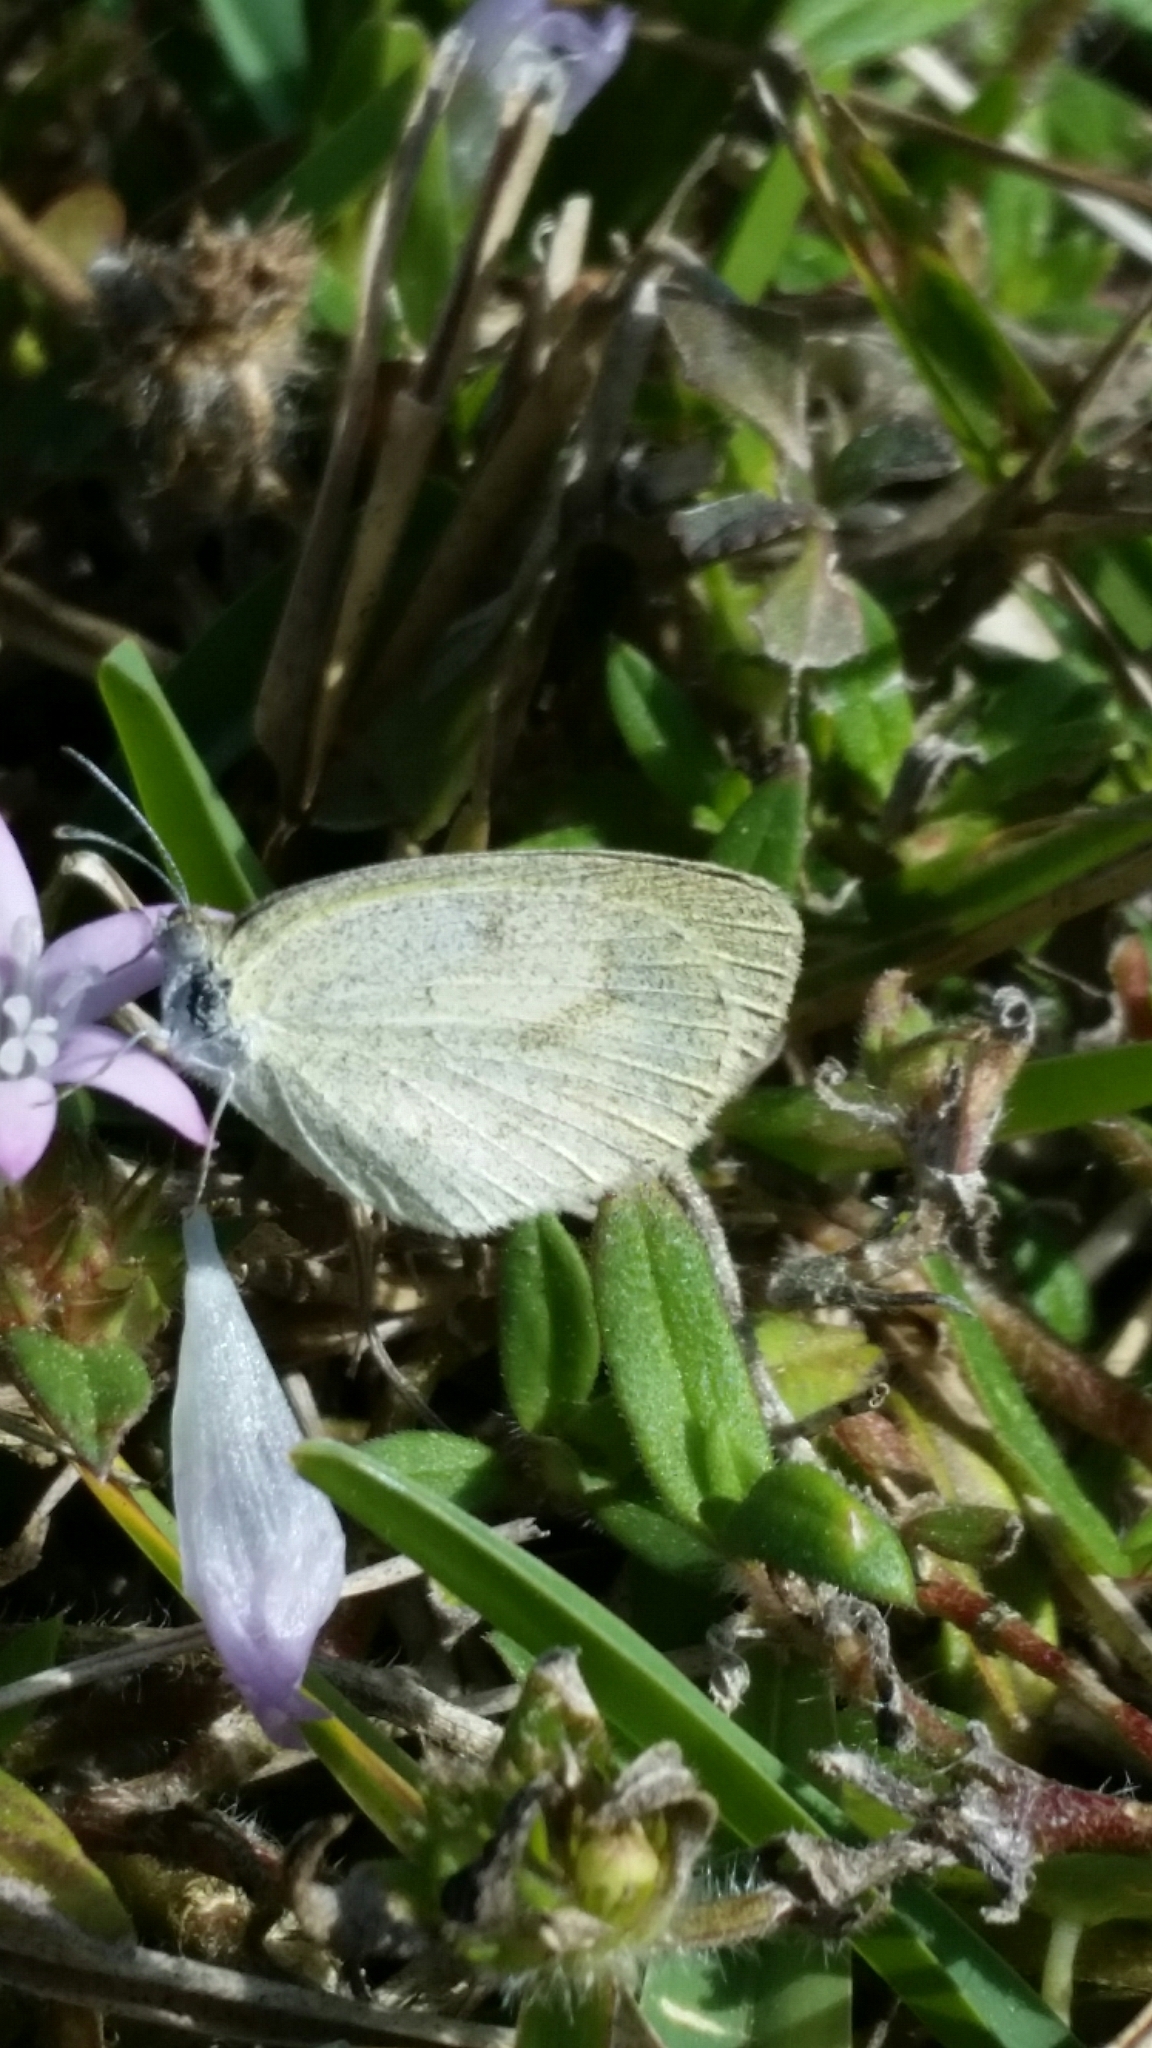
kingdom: Animalia
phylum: Arthropoda
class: Insecta
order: Lepidoptera
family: Pieridae
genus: Eurema
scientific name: Eurema daira
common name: Barred sulphur
